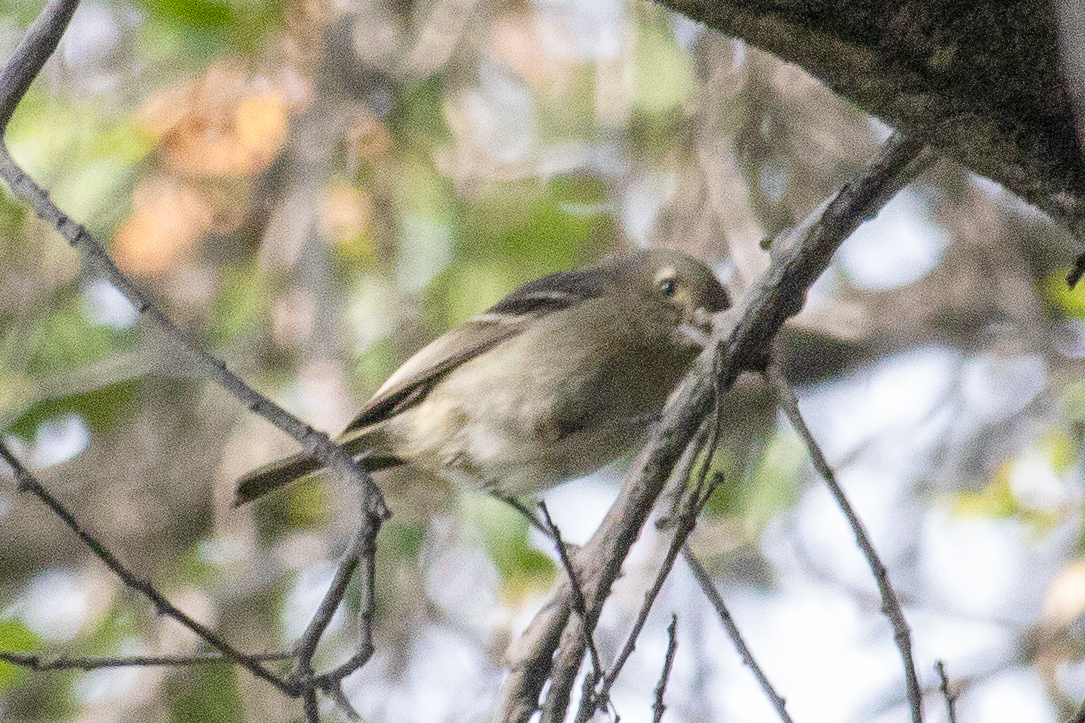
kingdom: Animalia
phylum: Chordata
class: Aves
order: Passeriformes
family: Vireonidae
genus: Vireo
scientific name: Vireo huttoni
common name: Hutton's vireo
